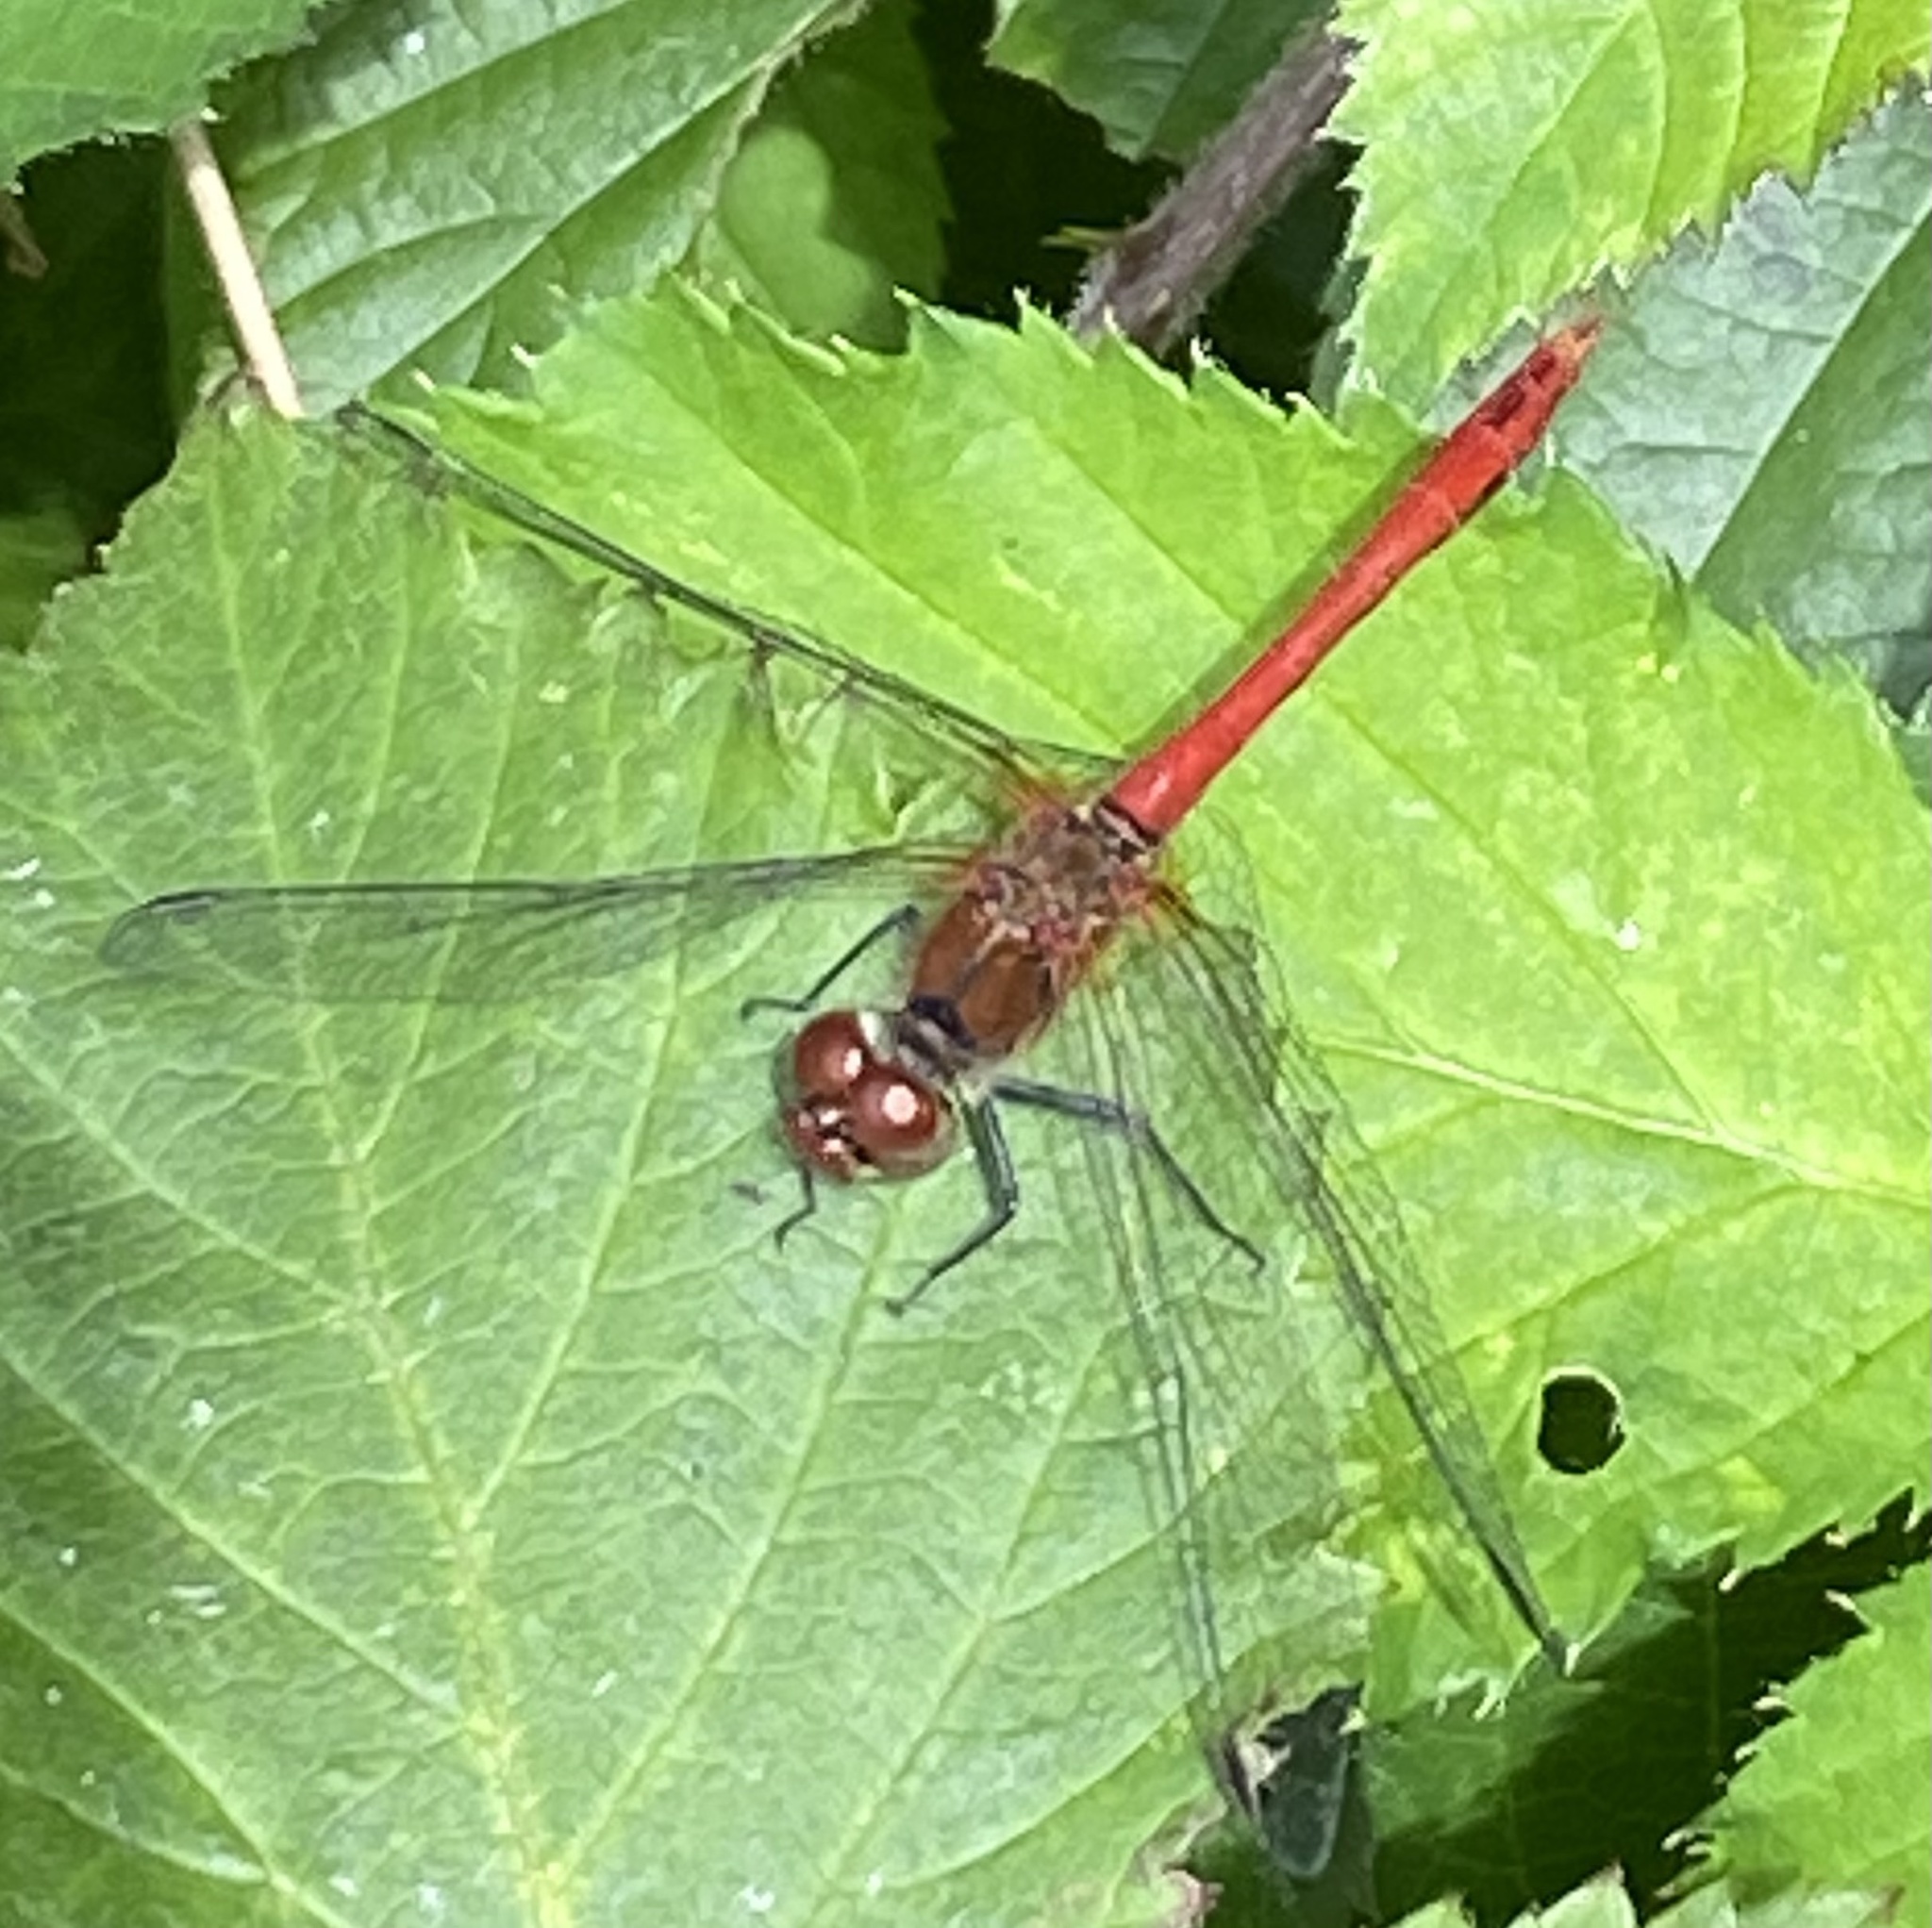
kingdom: Animalia
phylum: Arthropoda
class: Insecta
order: Odonata
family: Libellulidae
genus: Sympetrum
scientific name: Sympetrum sanguineum
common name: Ruddy darter
